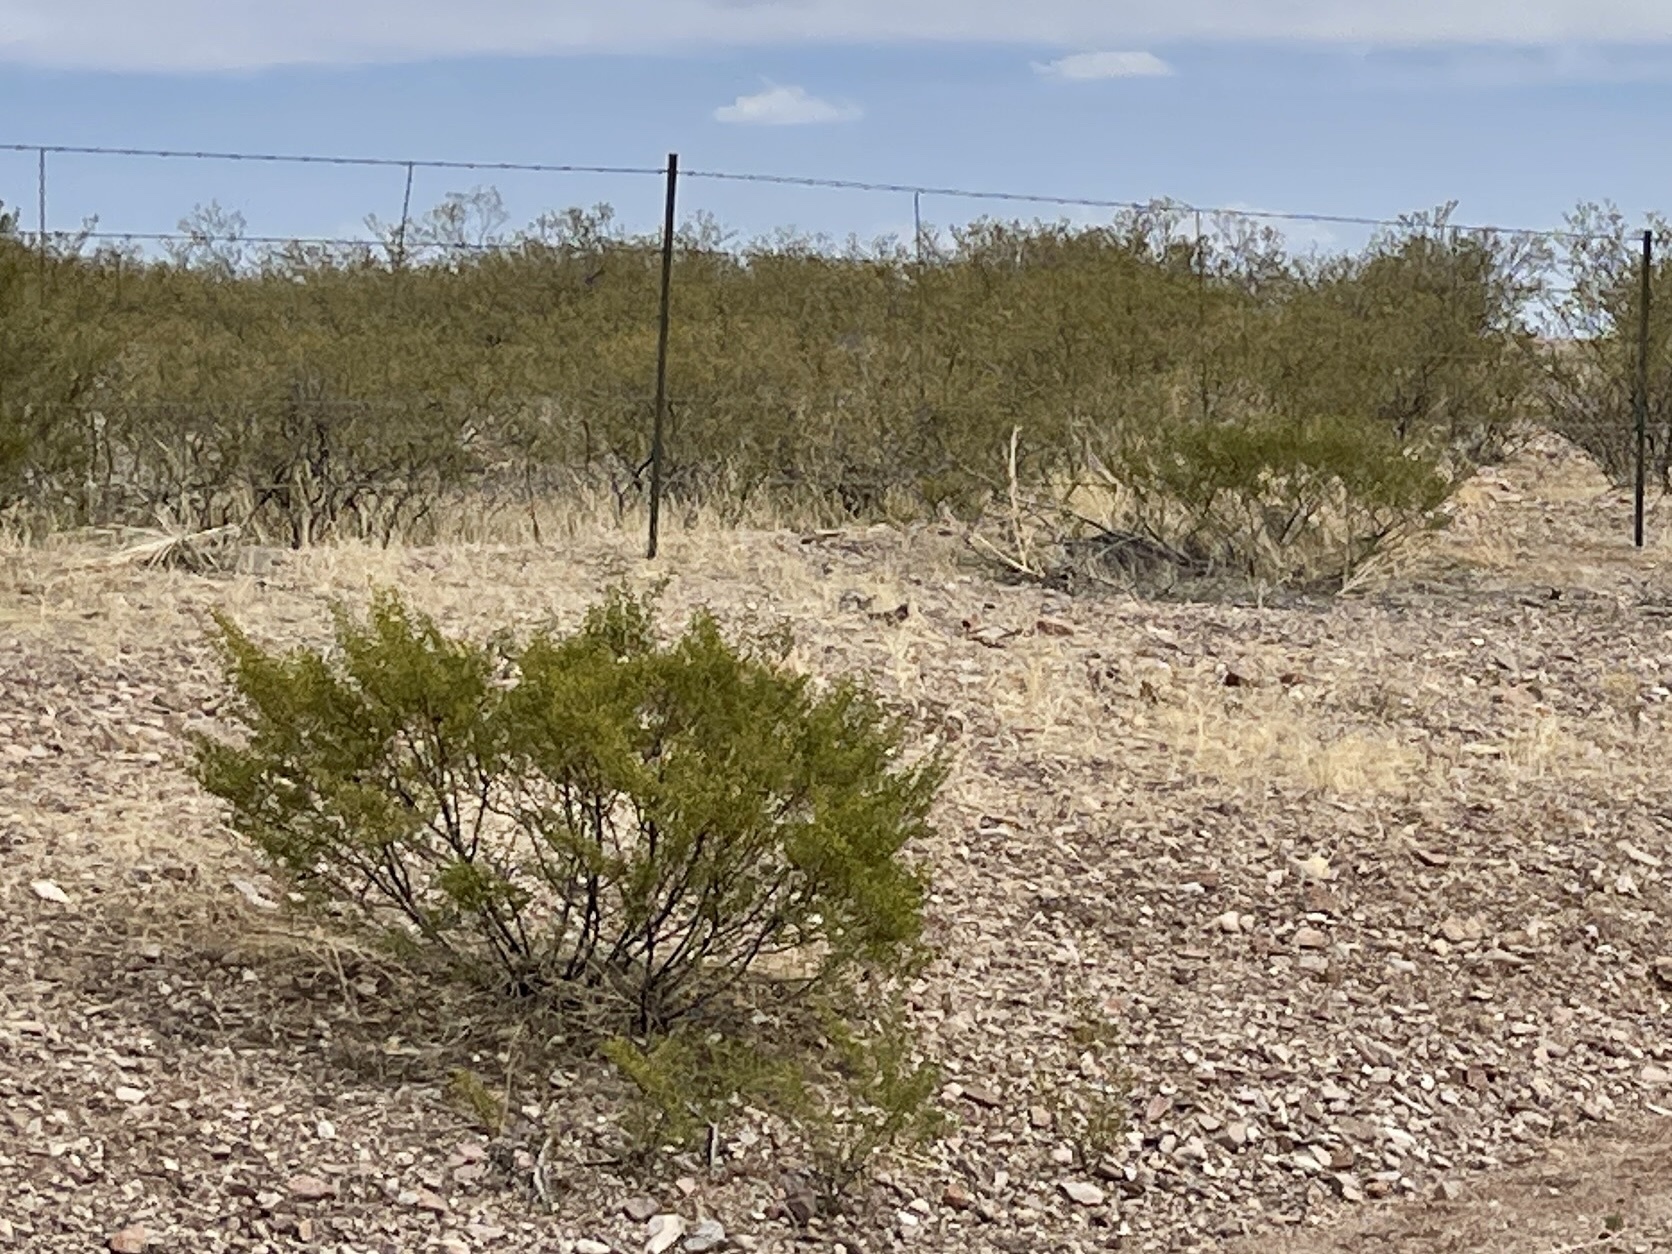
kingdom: Plantae
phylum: Tracheophyta
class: Magnoliopsida
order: Zygophyllales
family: Zygophyllaceae
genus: Larrea
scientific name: Larrea tridentata
